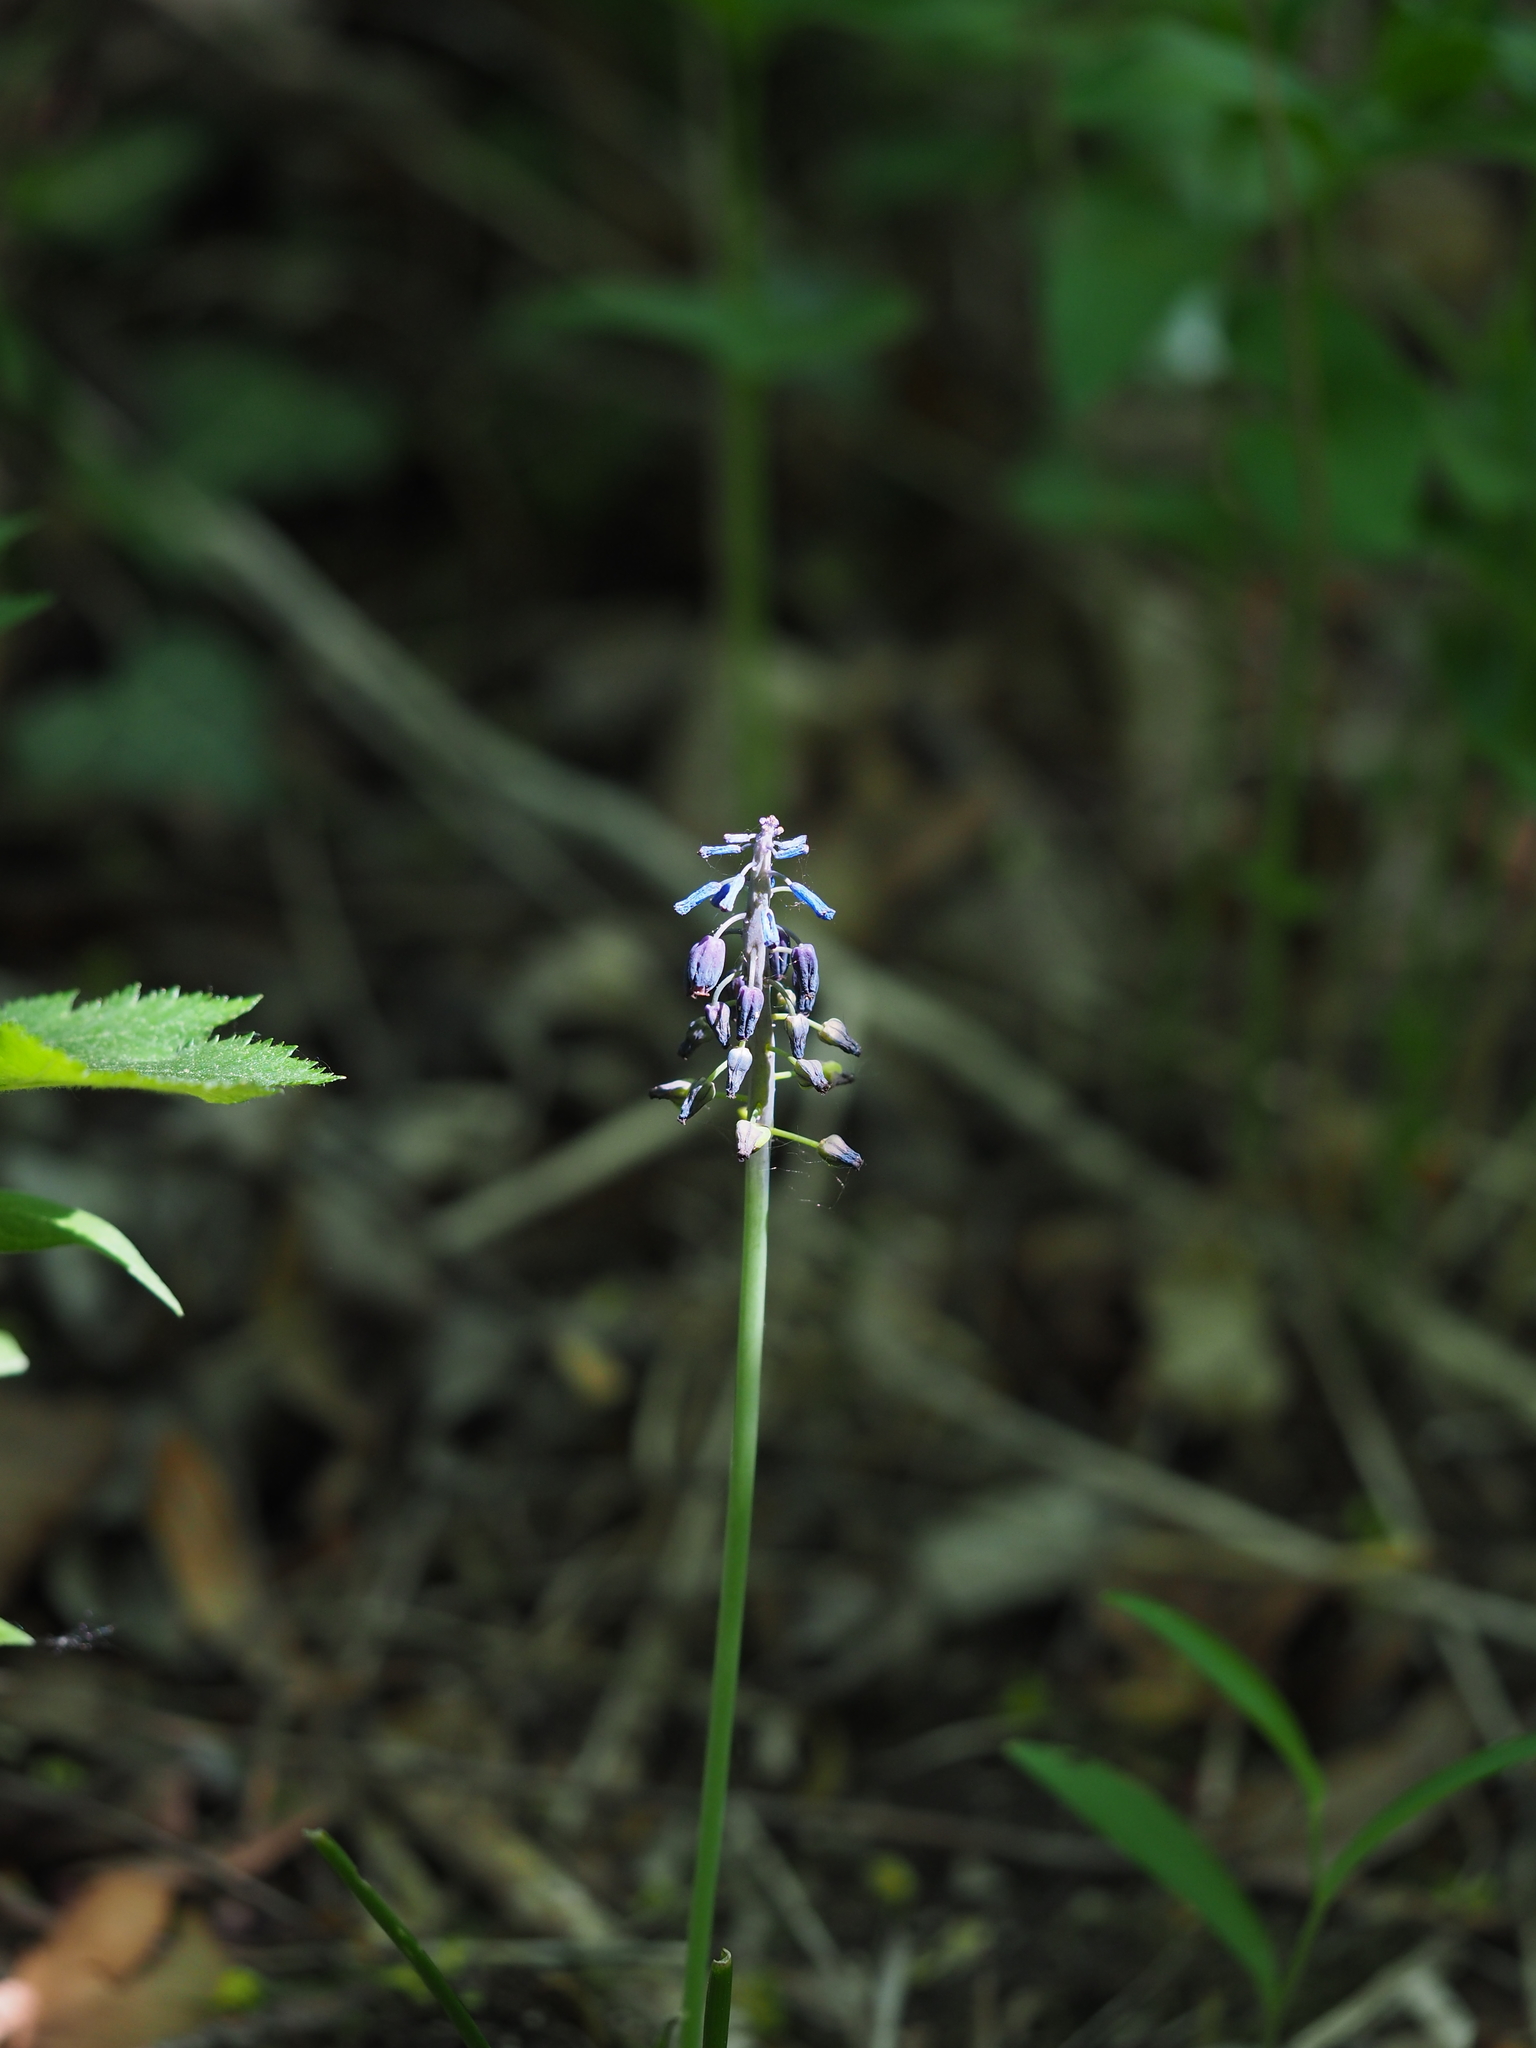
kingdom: Plantae
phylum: Tracheophyta
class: Liliopsida
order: Asparagales
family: Asparagaceae
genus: Muscari
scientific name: Muscari comosum
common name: Tassel hyacinth
